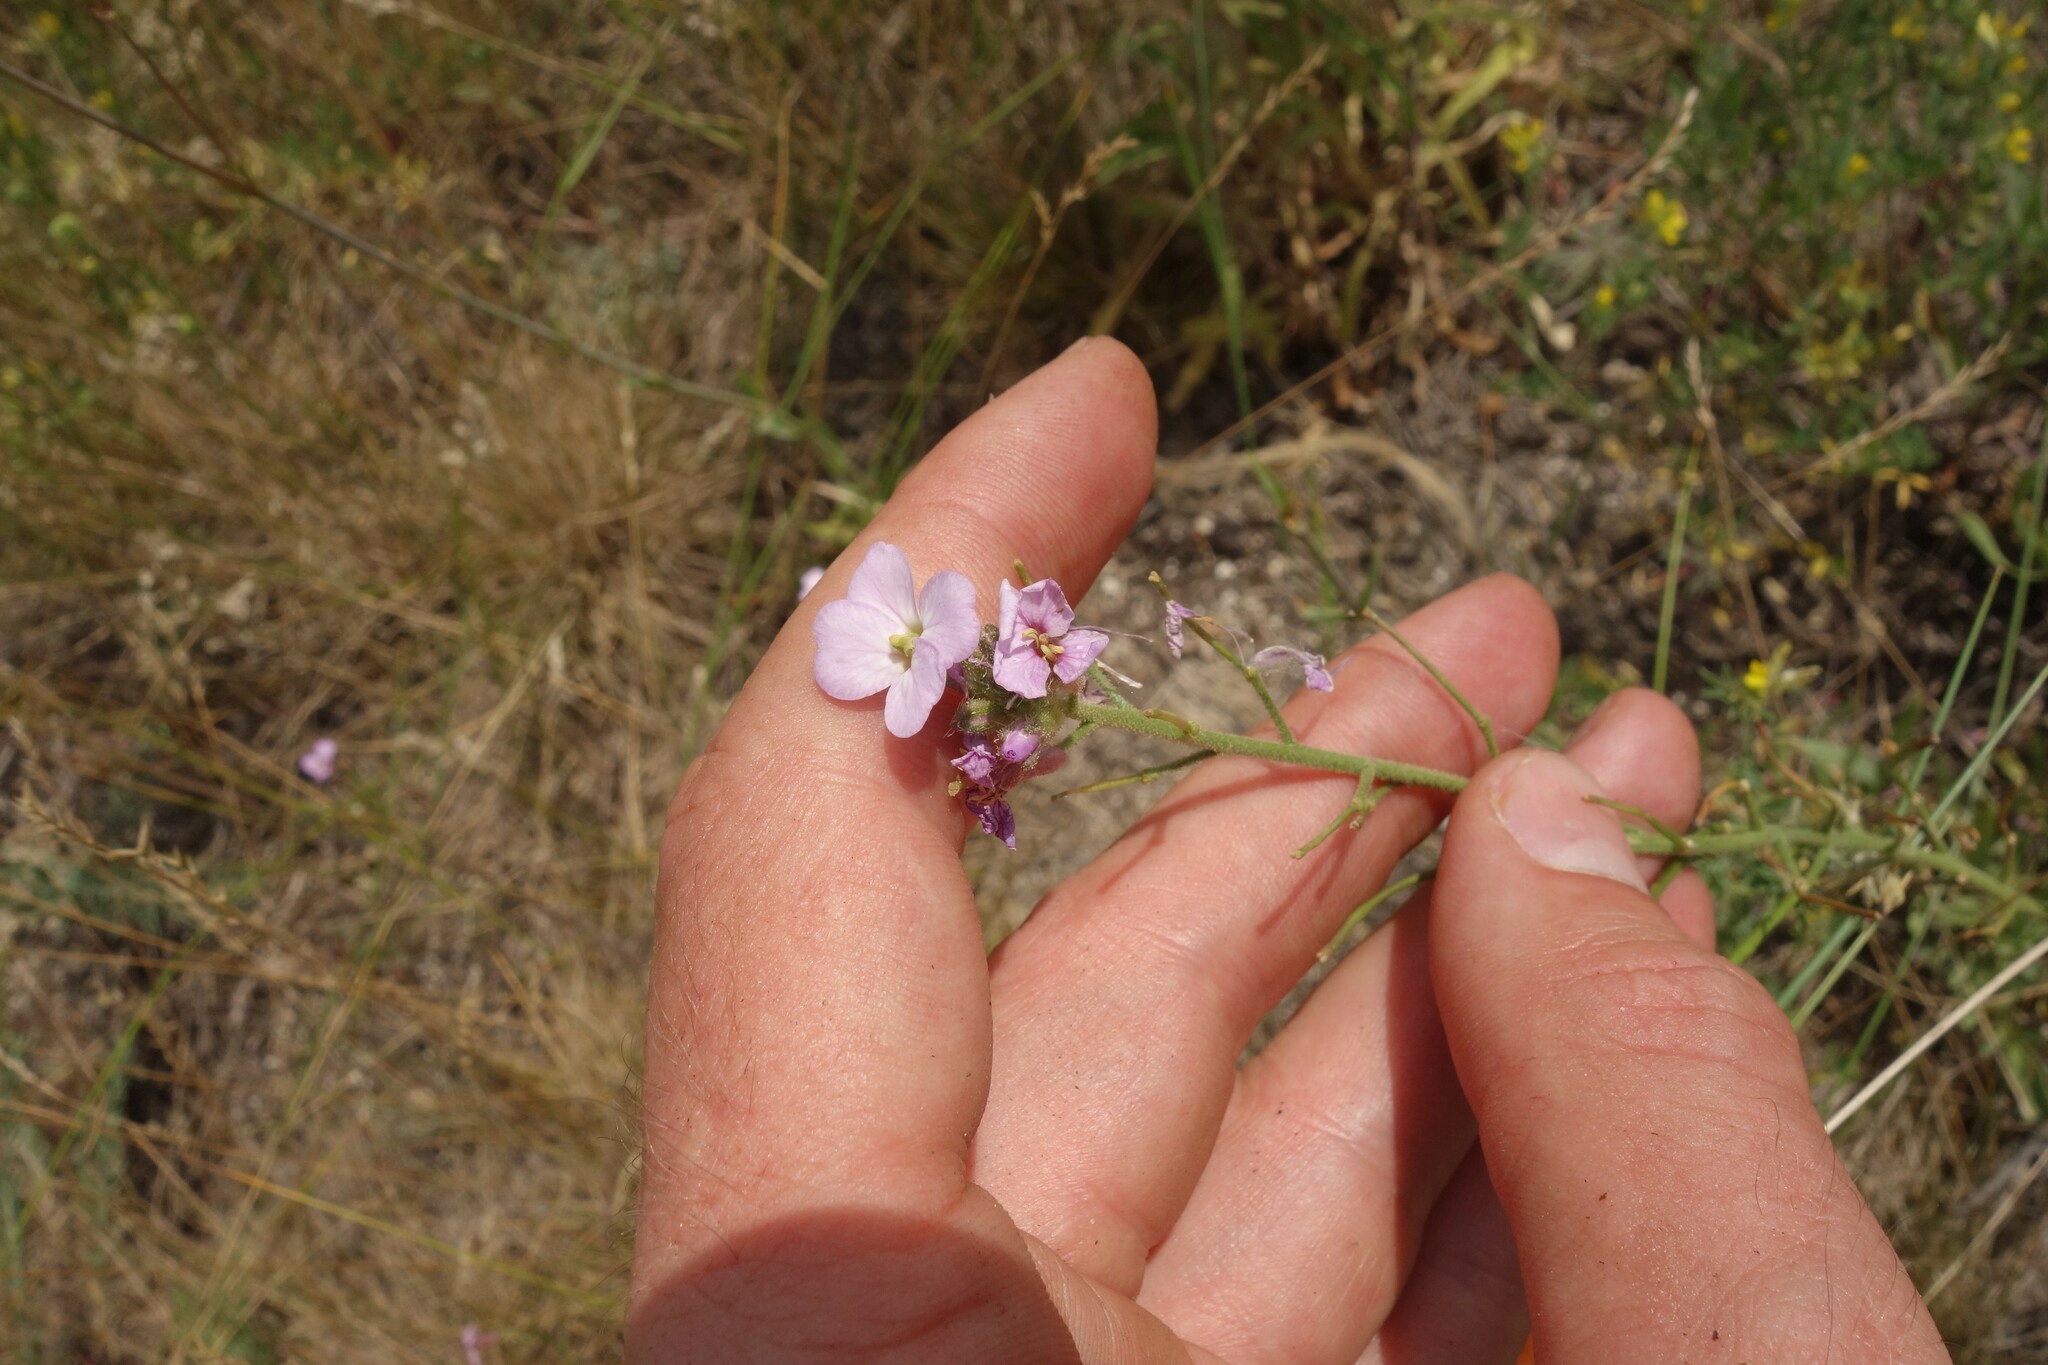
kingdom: Plantae
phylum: Tracheophyta
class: Magnoliopsida
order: Brassicales
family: Brassicaceae
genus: Clausia
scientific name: Clausia aprica
